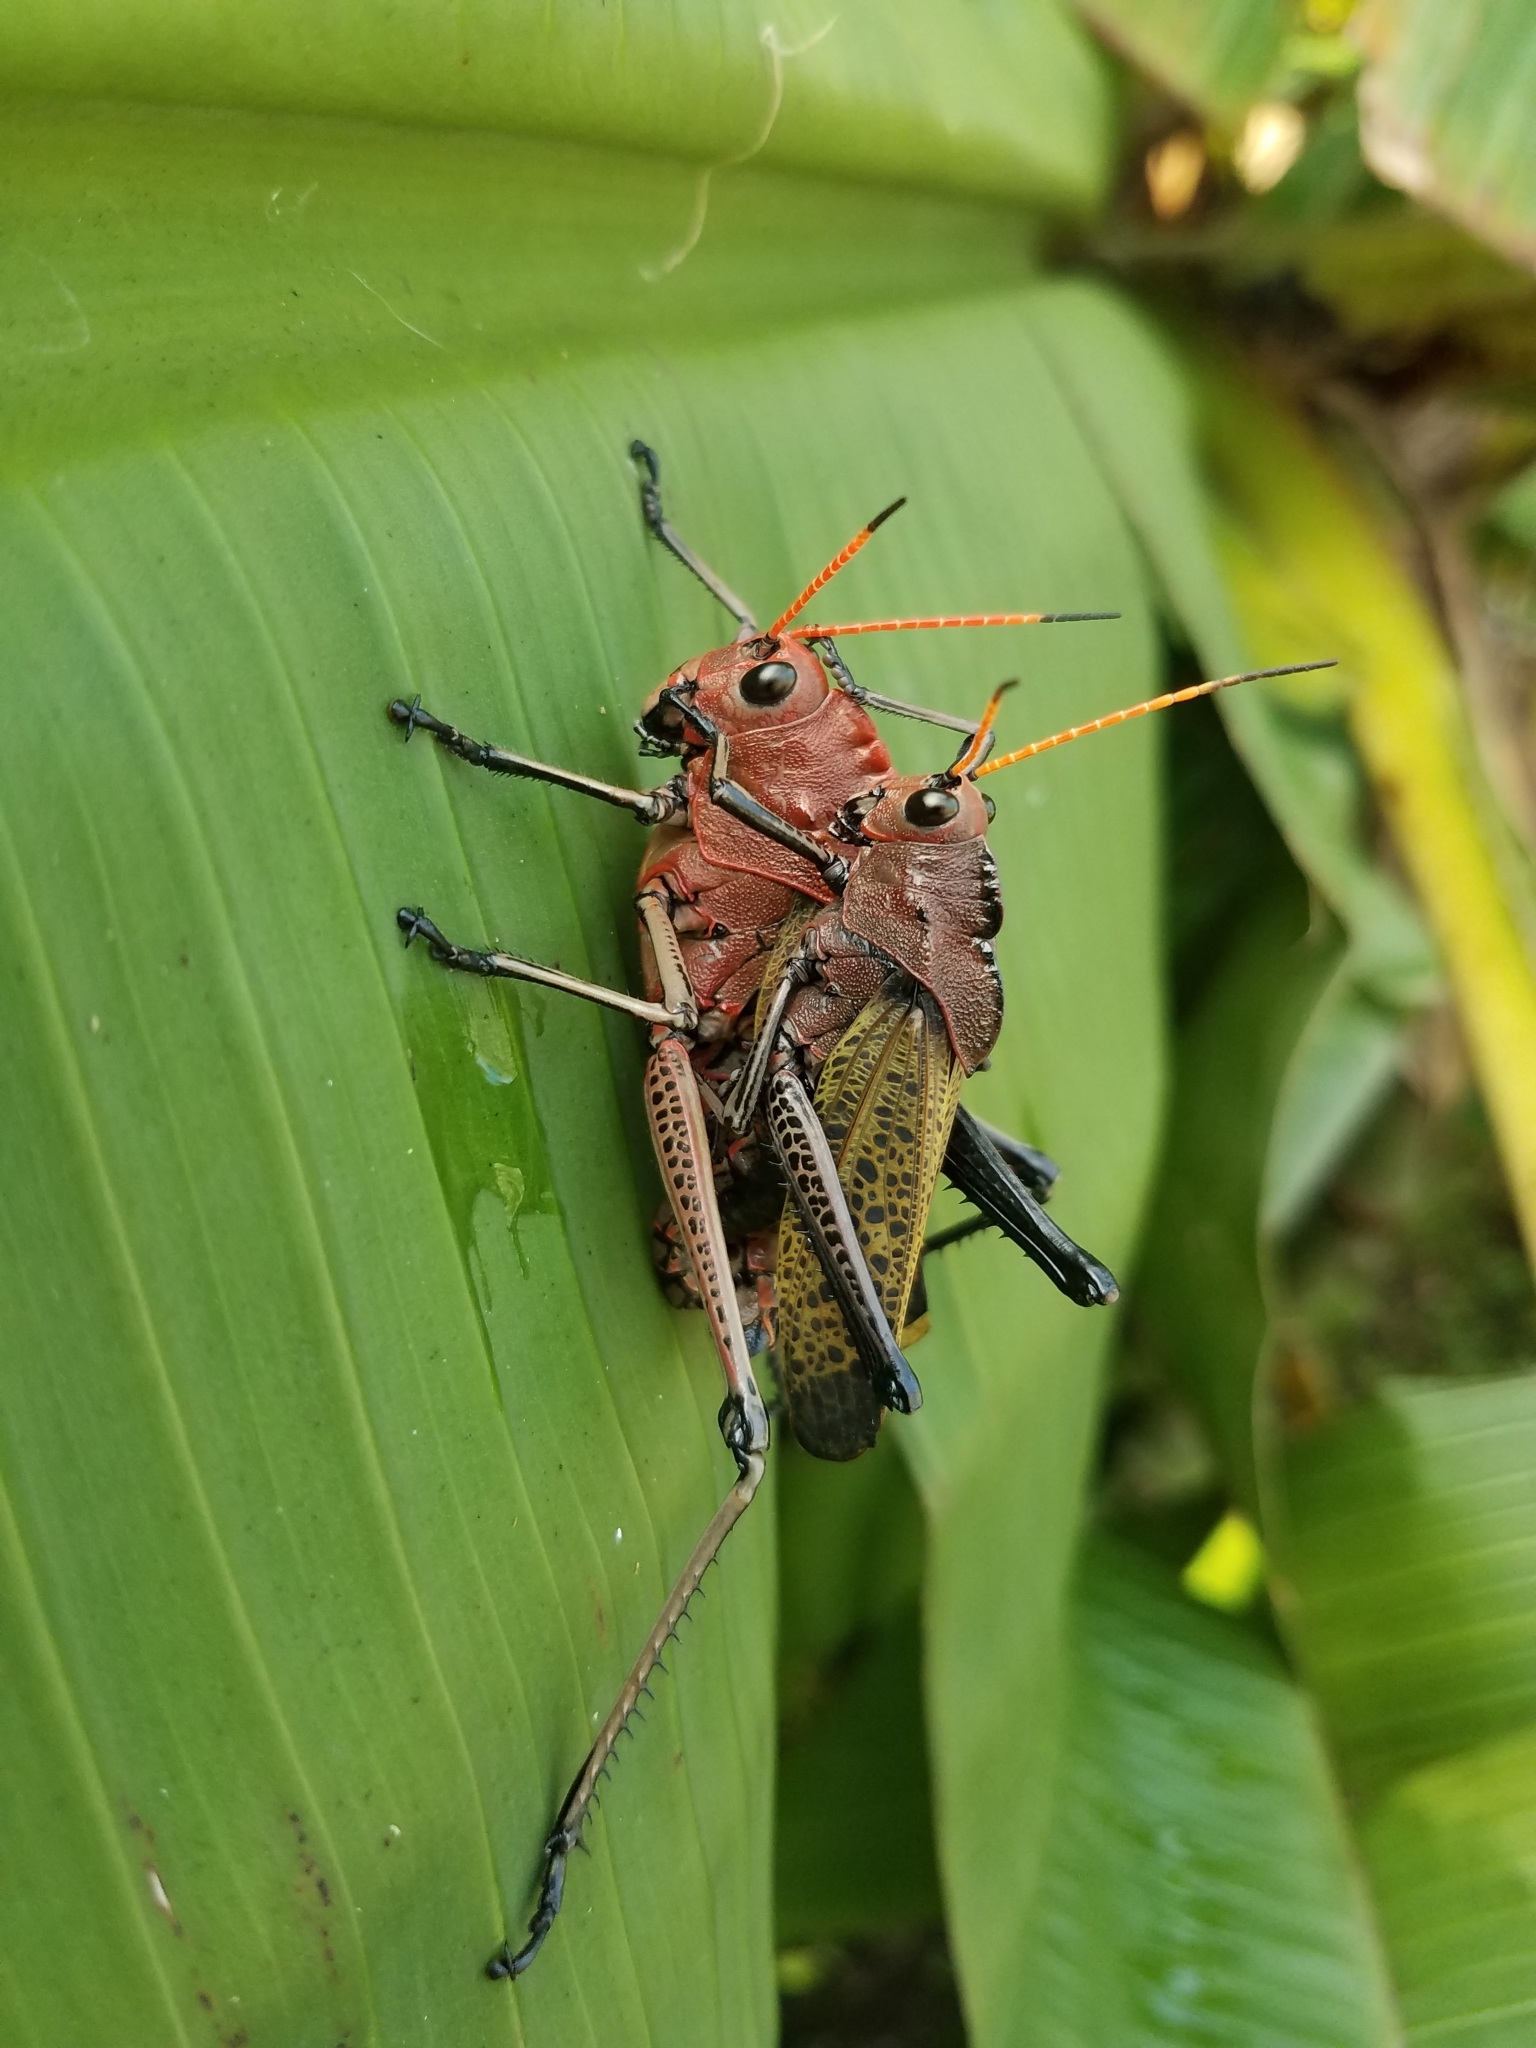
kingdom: Animalia
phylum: Arthropoda
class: Insecta
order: Orthoptera
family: Romaleidae
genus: Romalea
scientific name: Romalea
